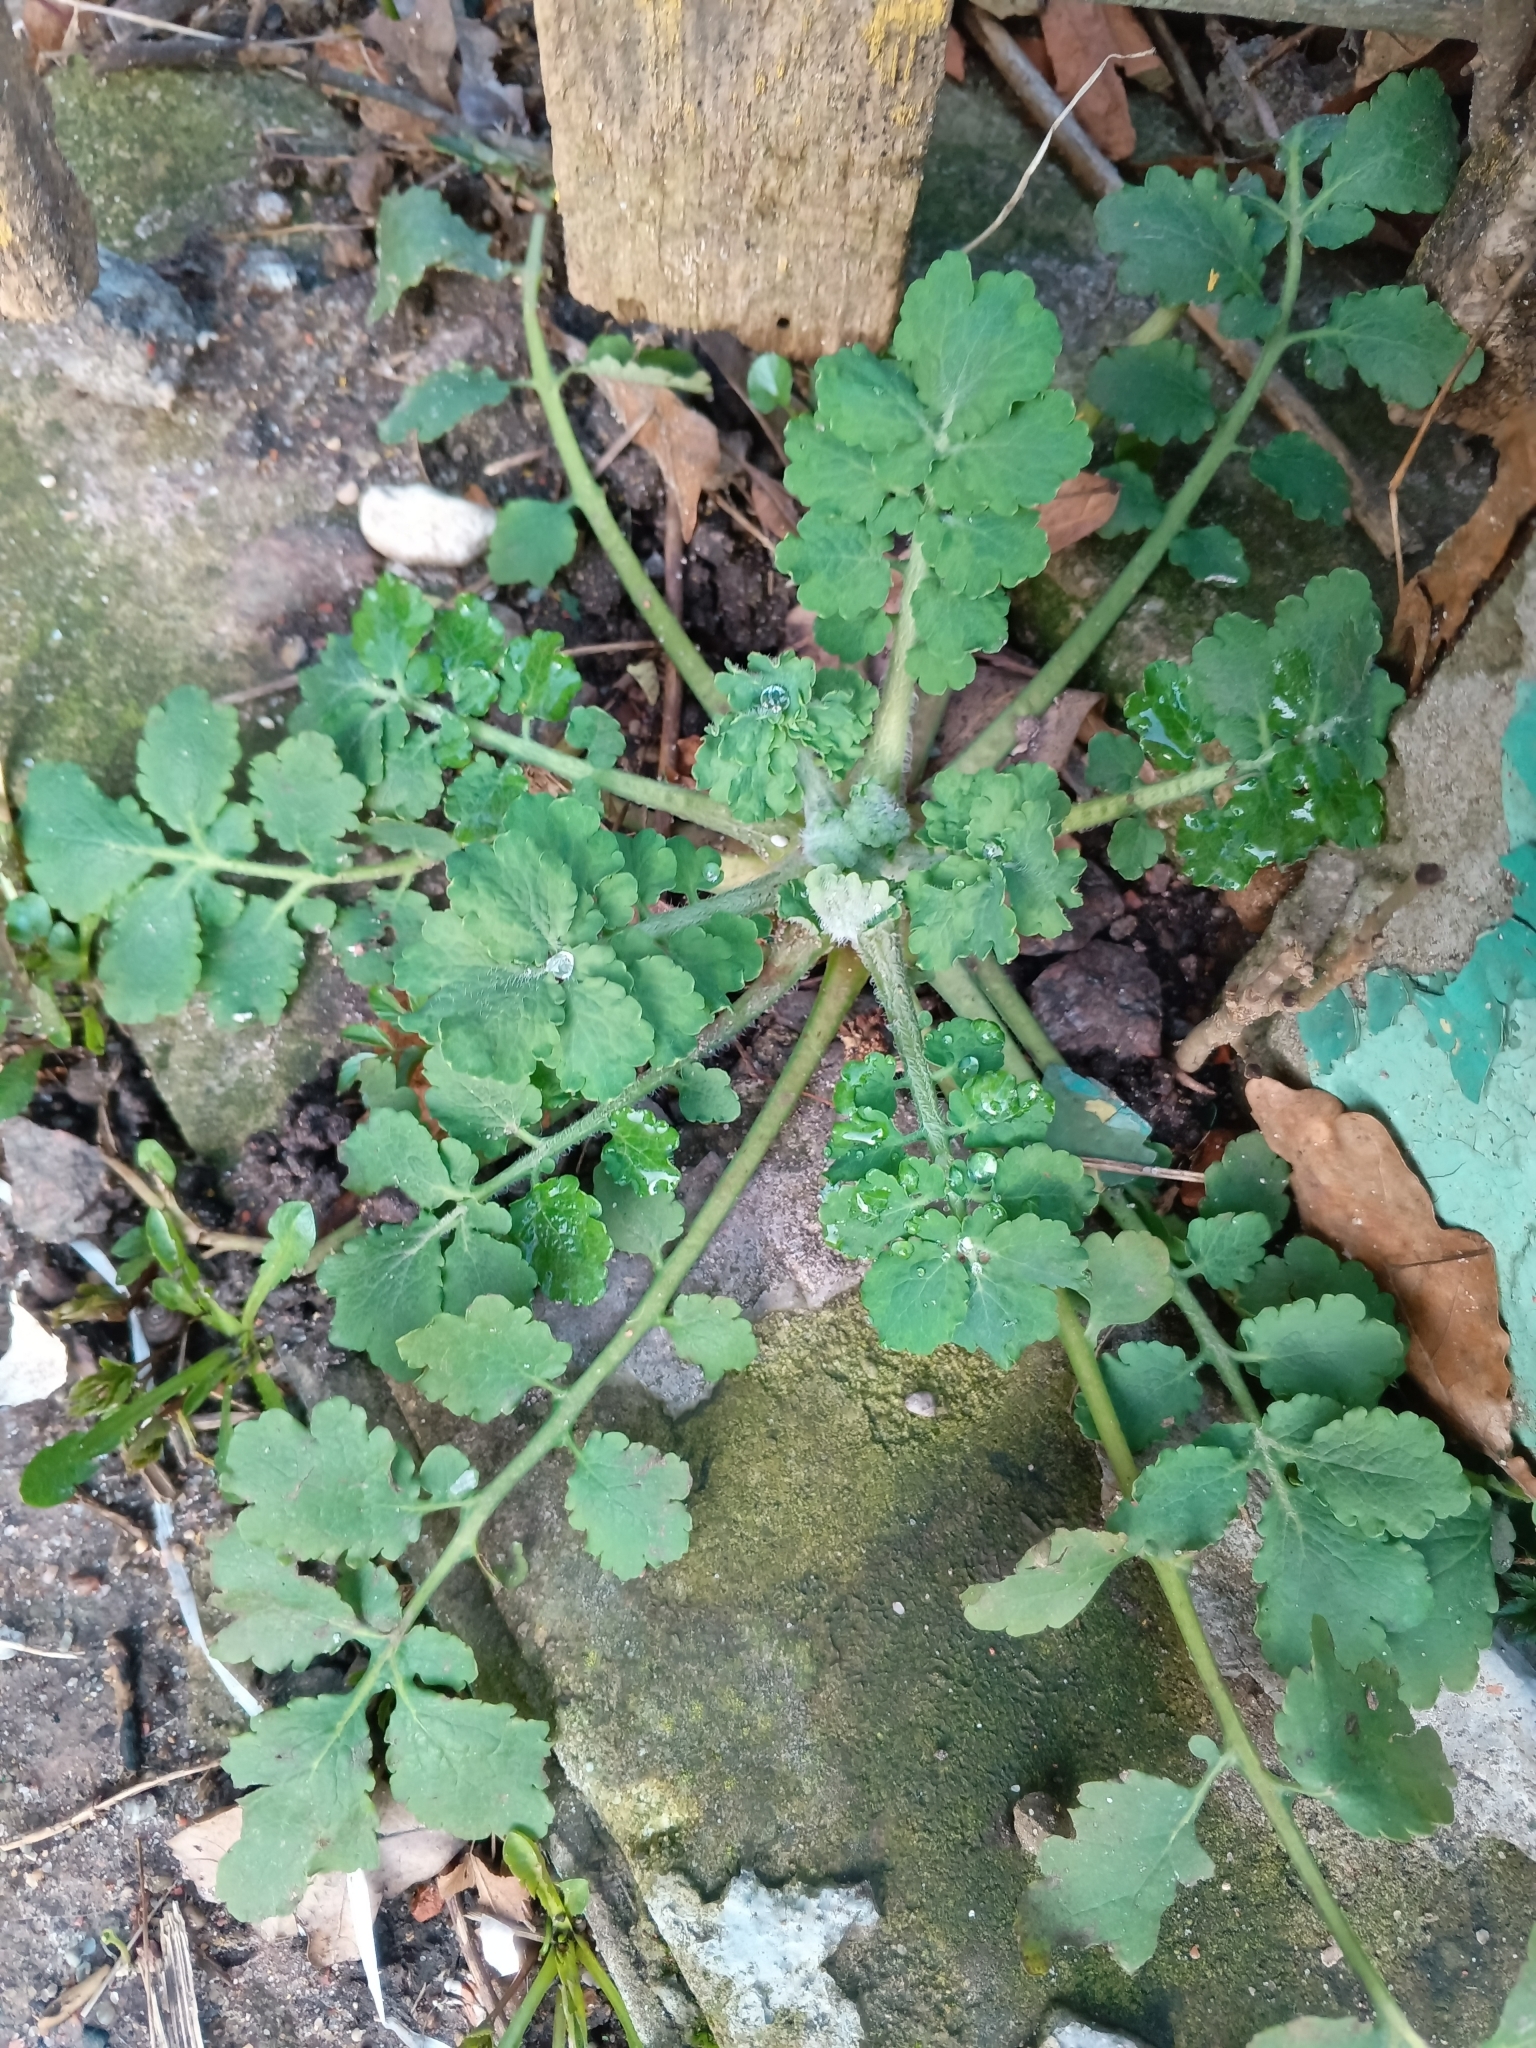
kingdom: Plantae
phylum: Tracheophyta
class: Magnoliopsida
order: Ranunculales
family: Papaveraceae
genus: Chelidonium
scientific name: Chelidonium majus
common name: Greater celandine
